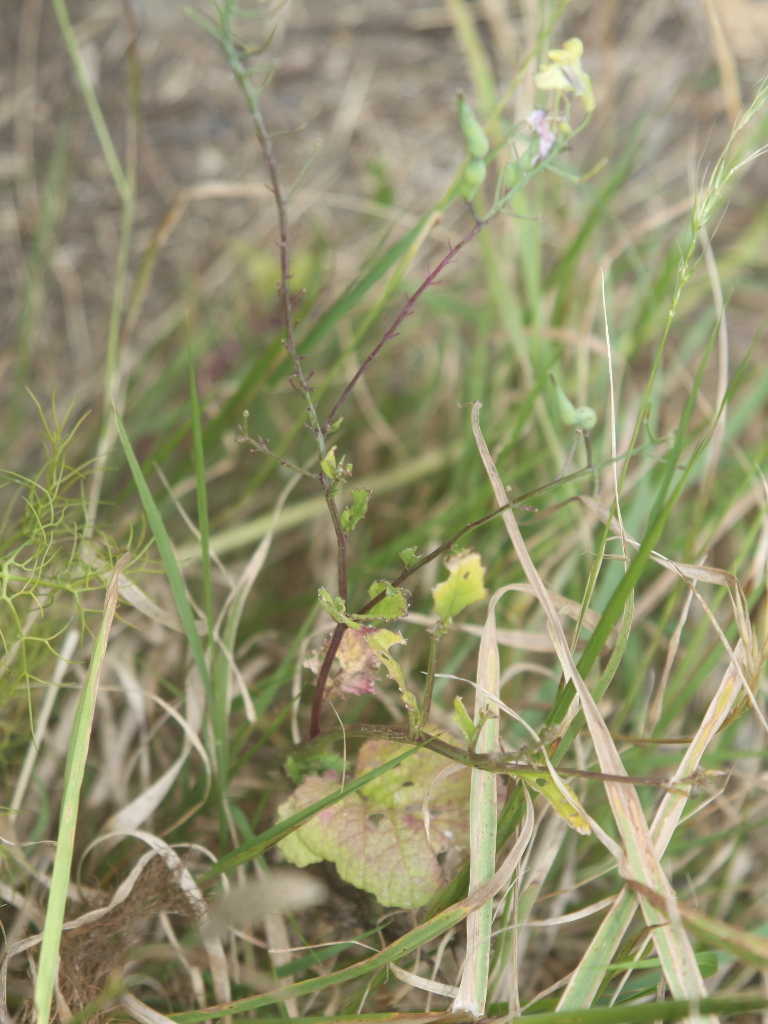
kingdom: Plantae
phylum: Tracheophyta
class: Magnoliopsida
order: Brassicales
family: Brassicaceae
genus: Raphanus
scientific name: Raphanus raphanistrum
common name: Wild radish
